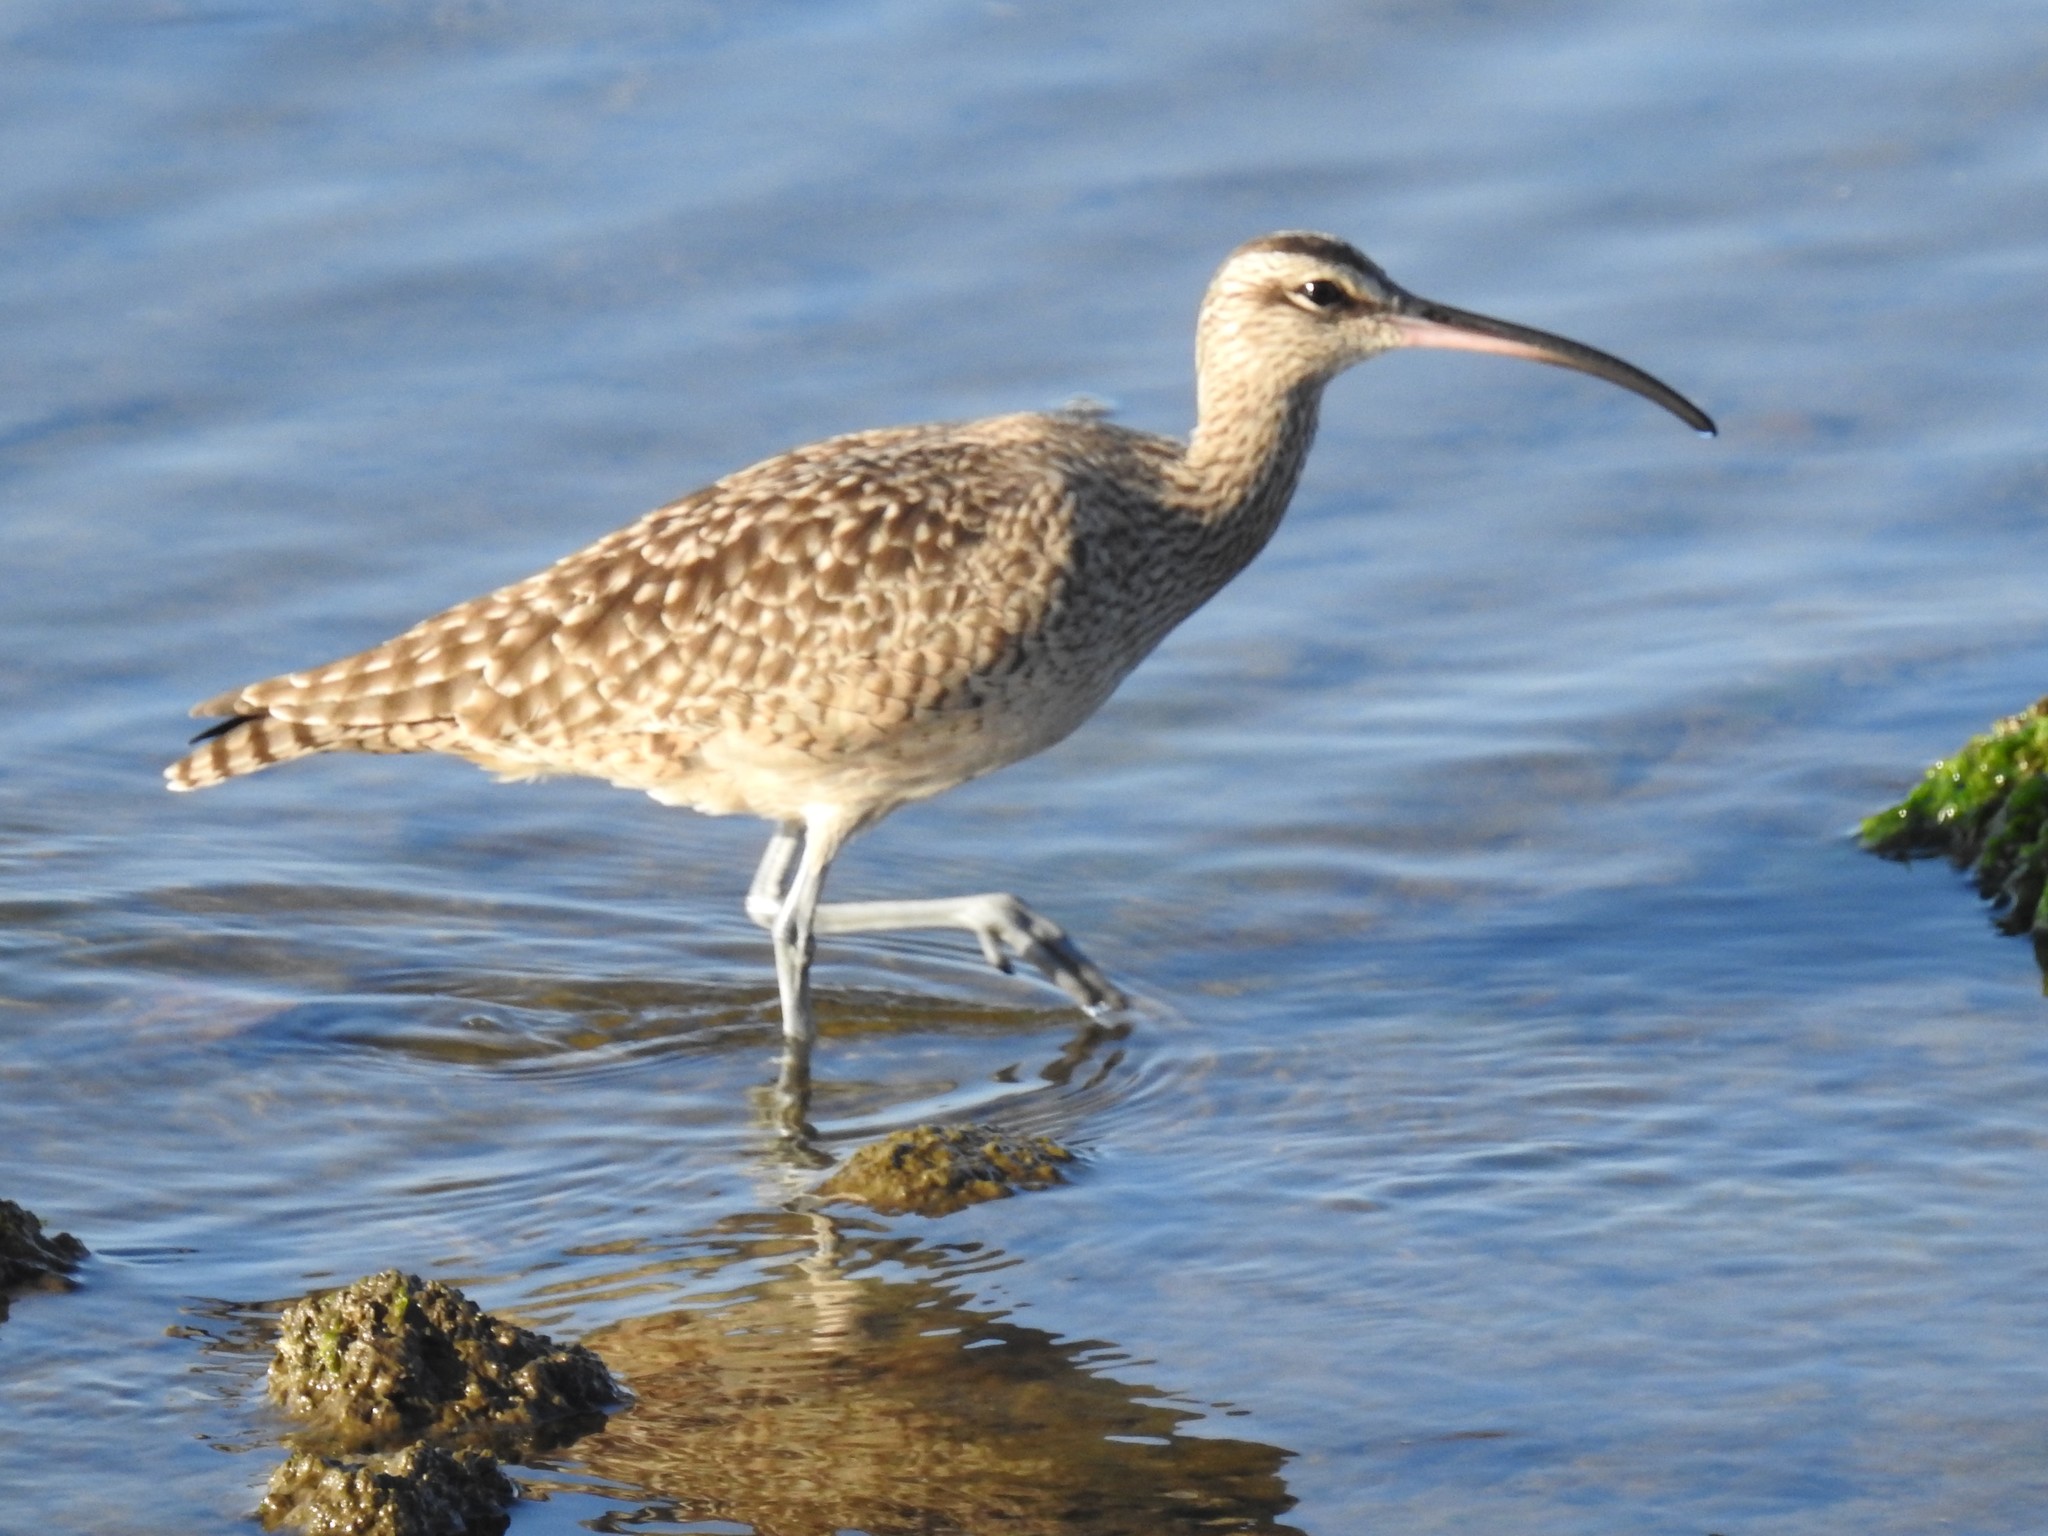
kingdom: Animalia
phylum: Chordata
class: Aves
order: Charadriiformes
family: Scolopacidae
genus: Numenius
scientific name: Numenius phaeopus
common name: Whimbrel
